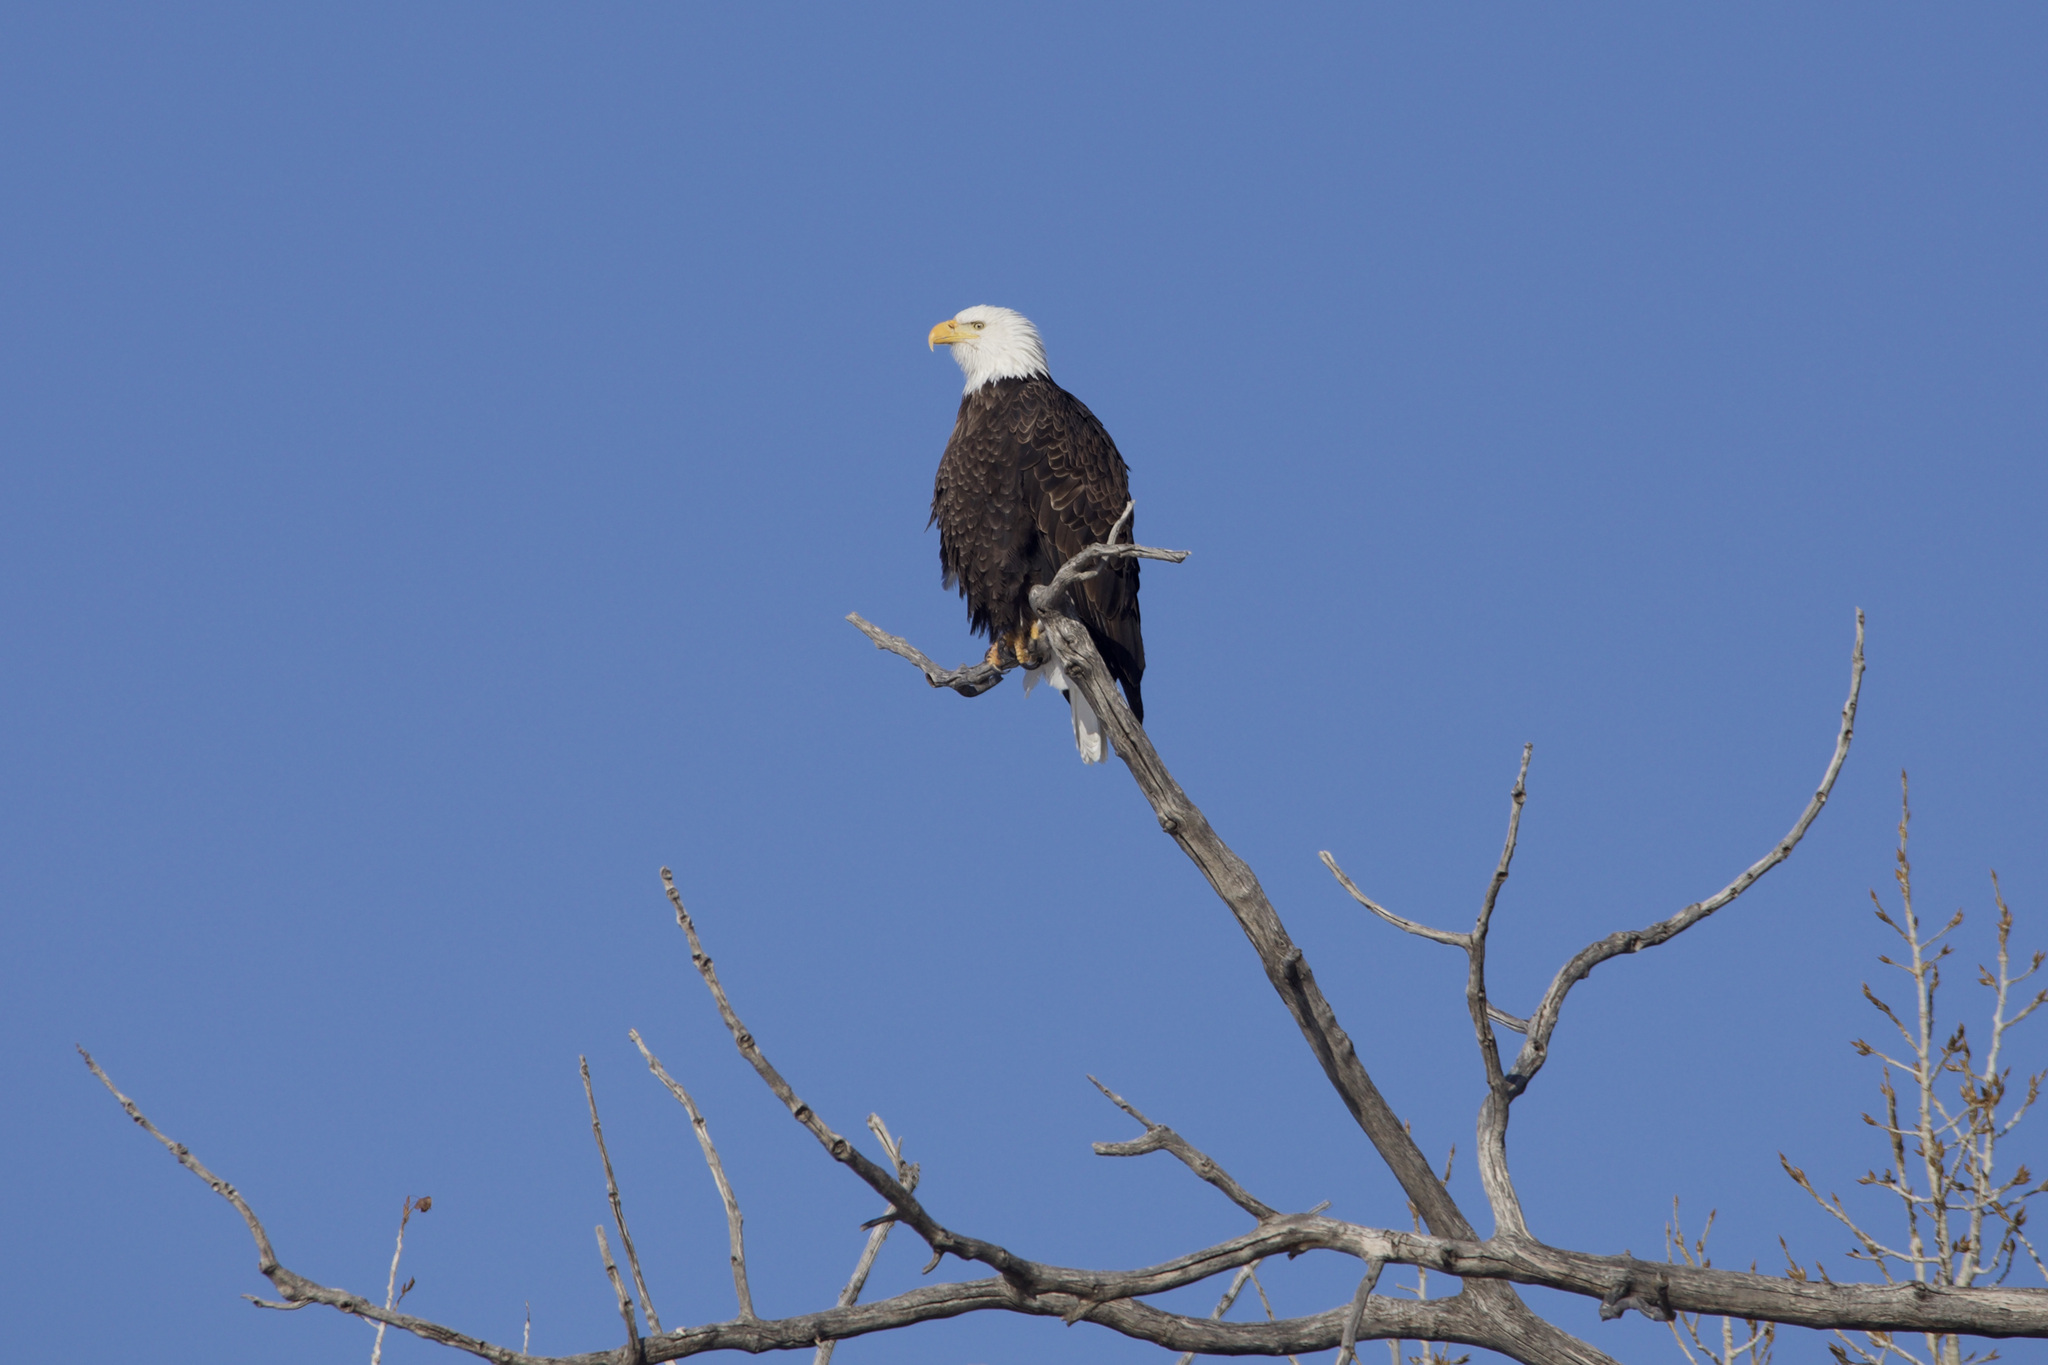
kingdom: Animalia
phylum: Chordata
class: Aves
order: Accipitriformes
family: Accipitridae
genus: Haliaeetus
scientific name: Haliaeetus leucocephalus
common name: Bald eagle
